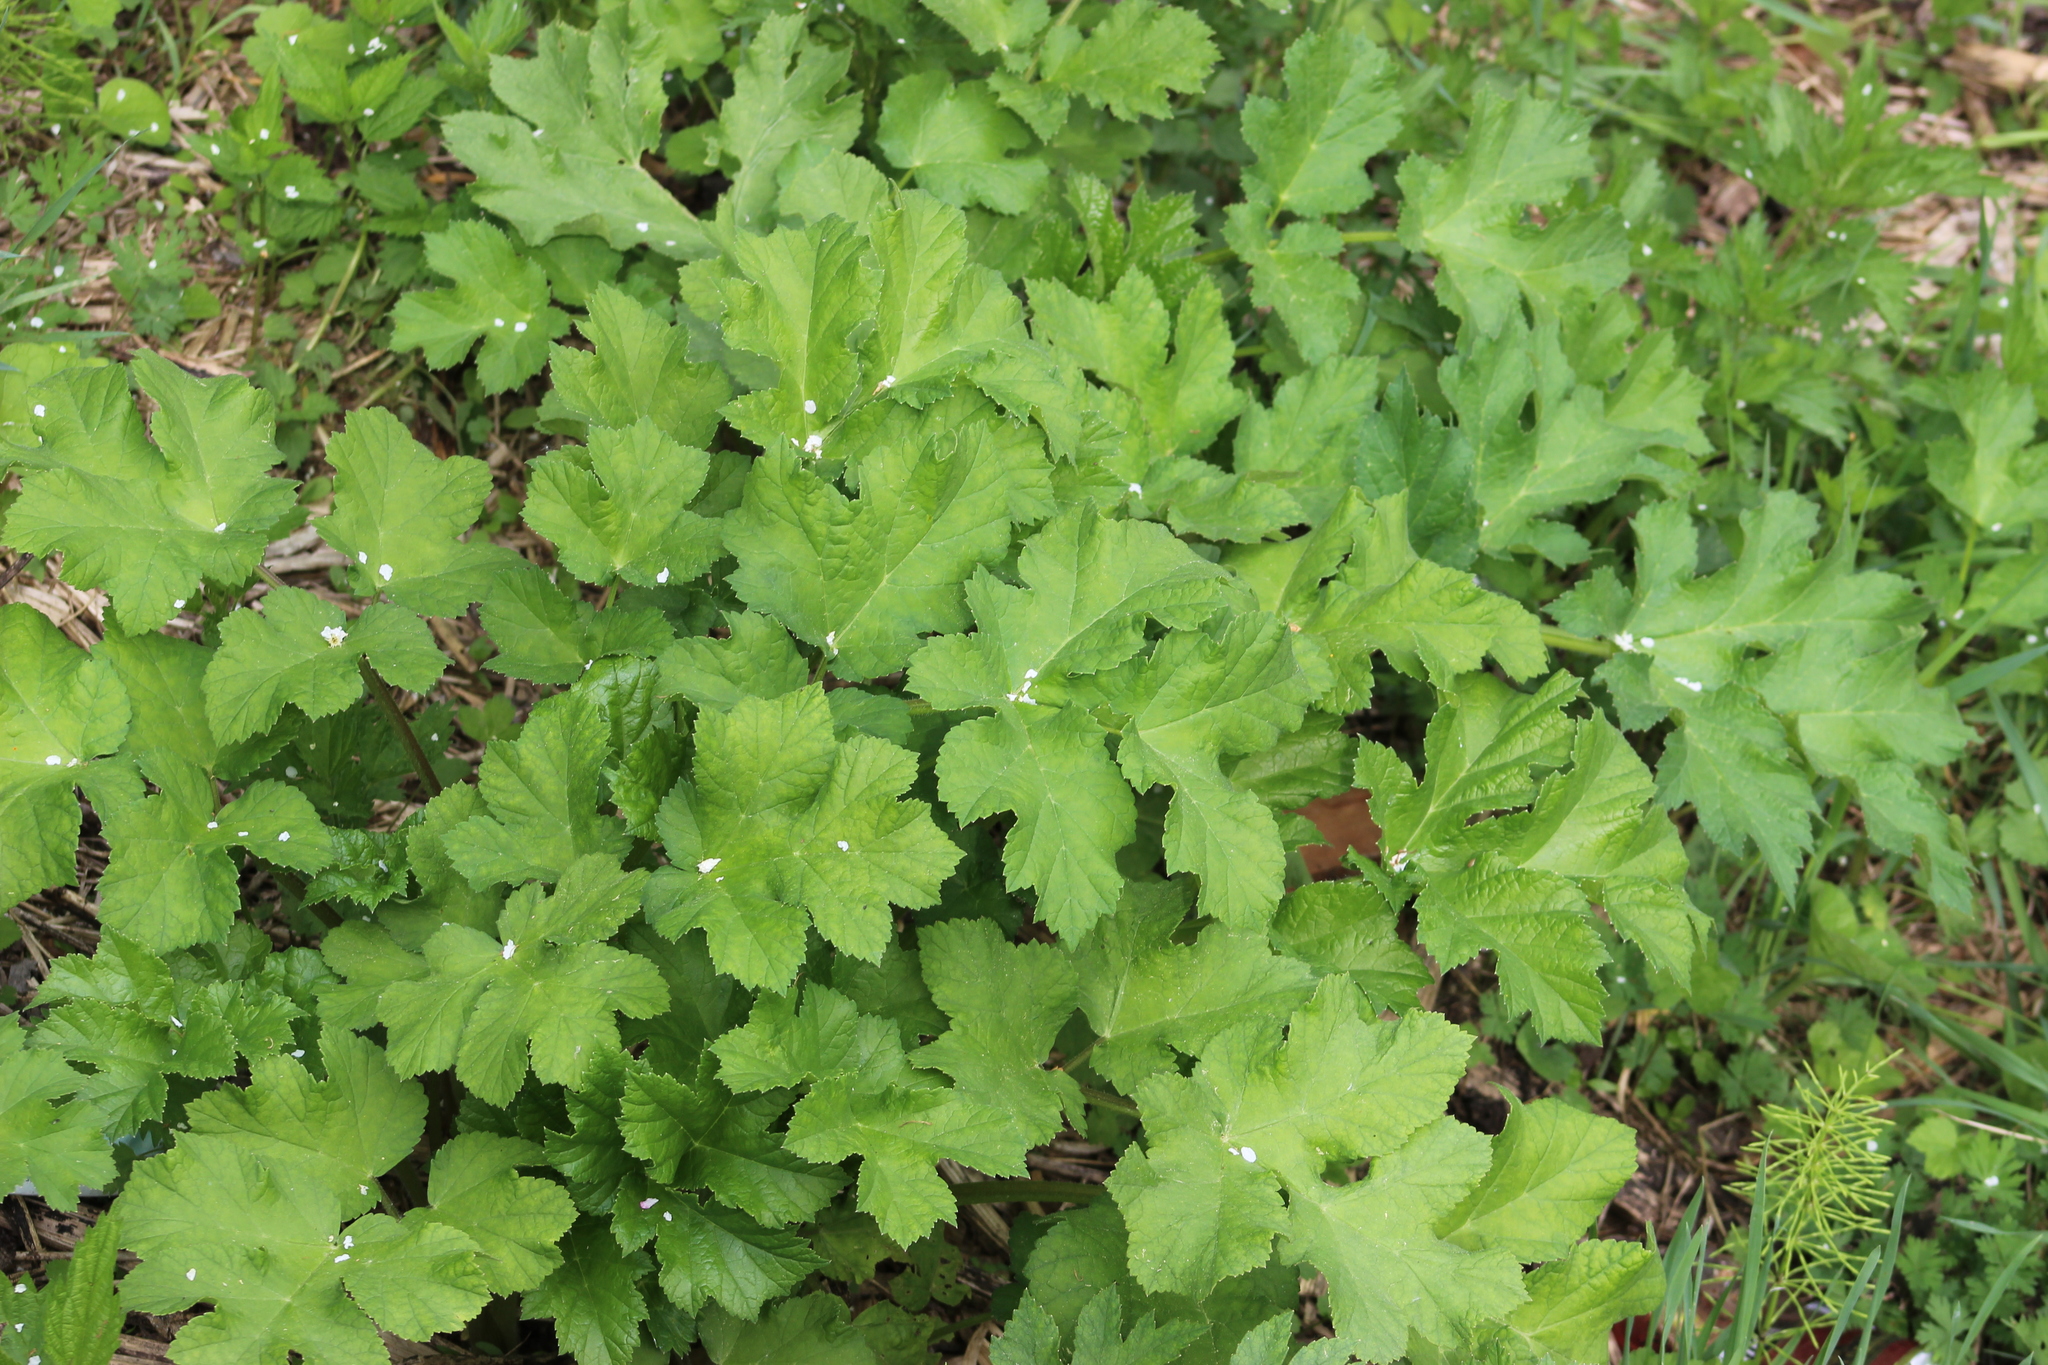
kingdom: Plantae
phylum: Tracheophyta
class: Magnoliopsida
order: Apiales
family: Apiaceae
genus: Heracleum
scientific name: Heracleum sphondylium
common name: Hogweed
